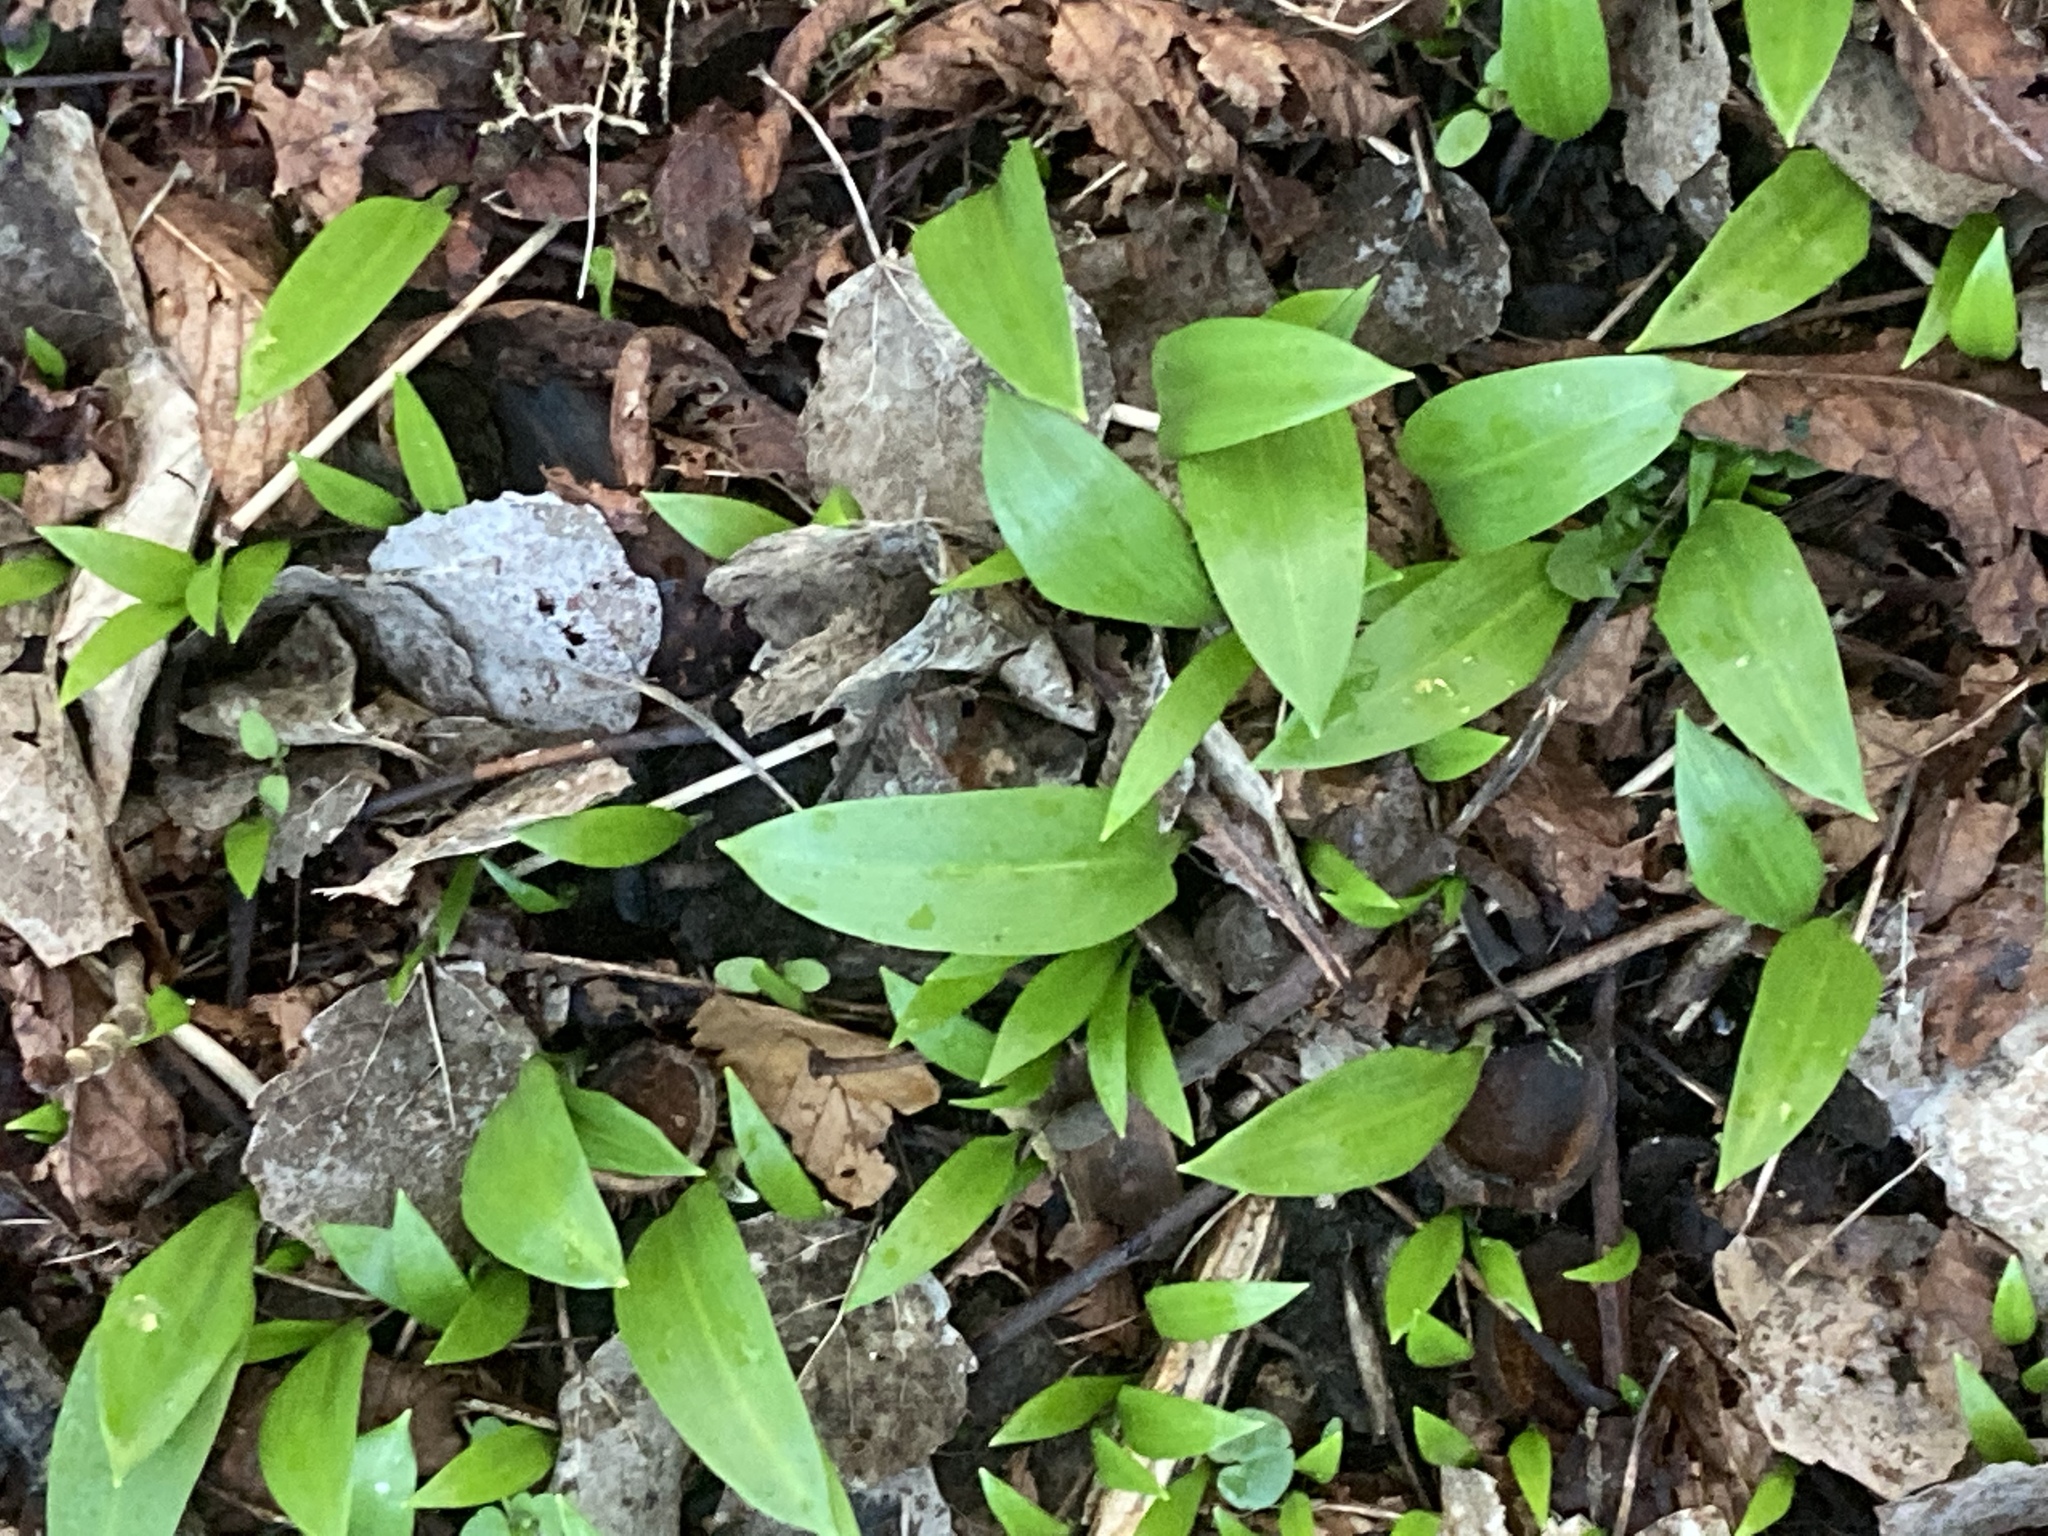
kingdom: Plantae
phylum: Tracheophyta
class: Liliopsida
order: Asparagales
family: Amaryllidaceae
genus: Allium
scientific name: Allium ursinum
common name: Ramsons
